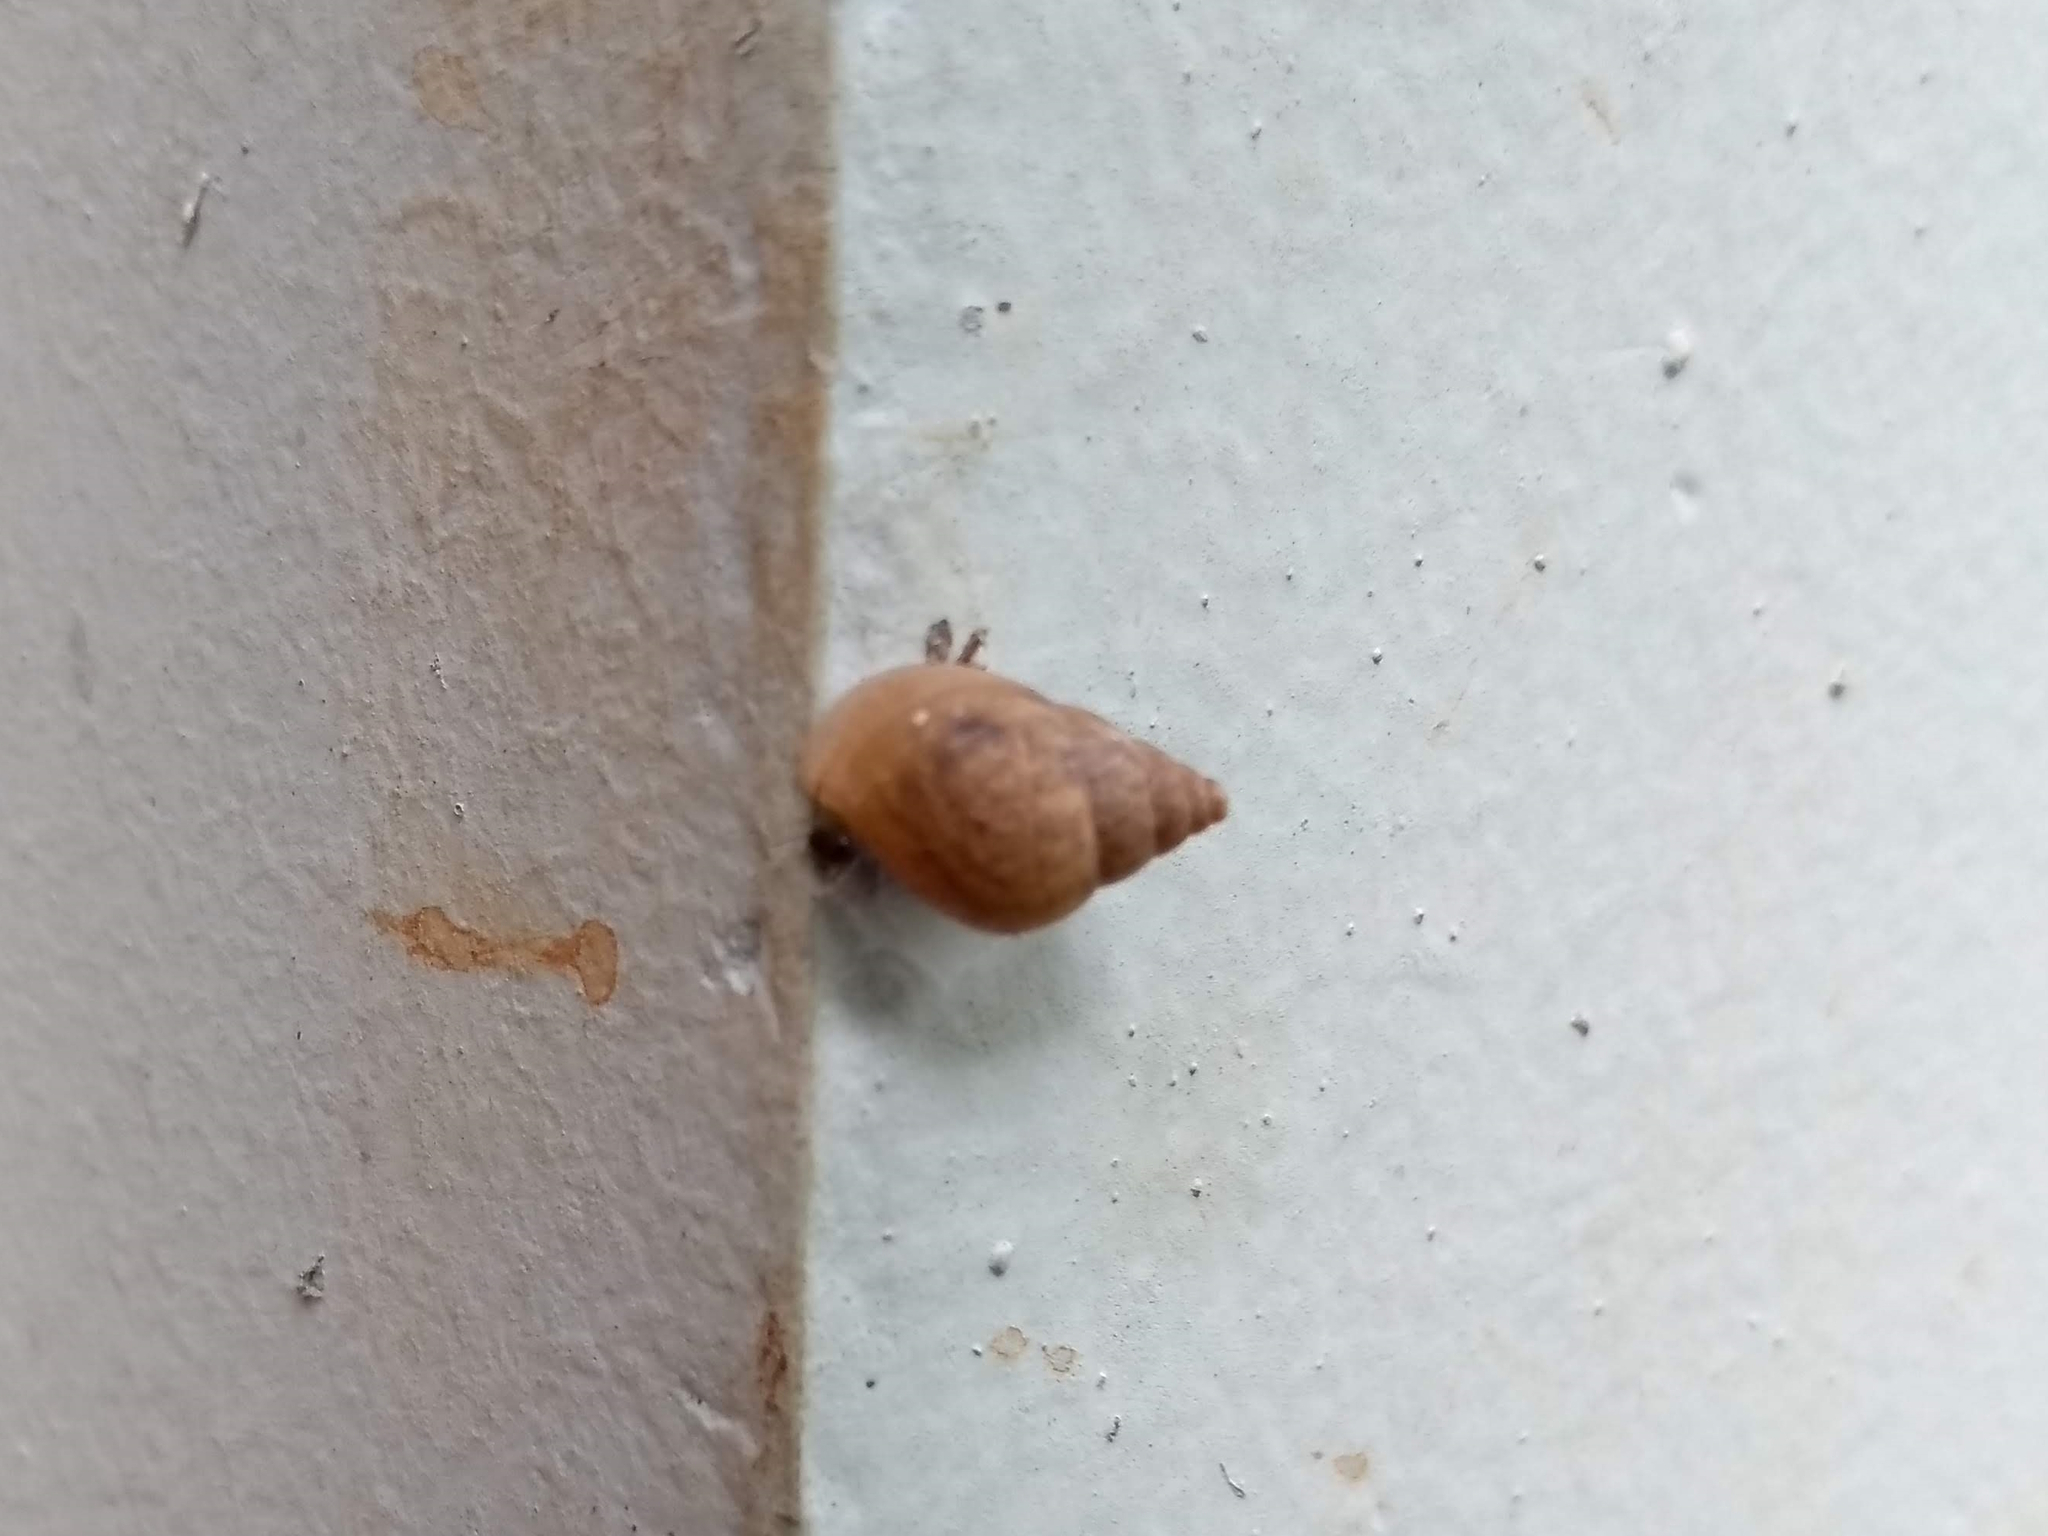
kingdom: Animalia
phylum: Mollusca
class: Gastropoda
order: Stylommatophora
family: Bulimulidae
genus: Bulimulus
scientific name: Bulimulus tenuissimus
